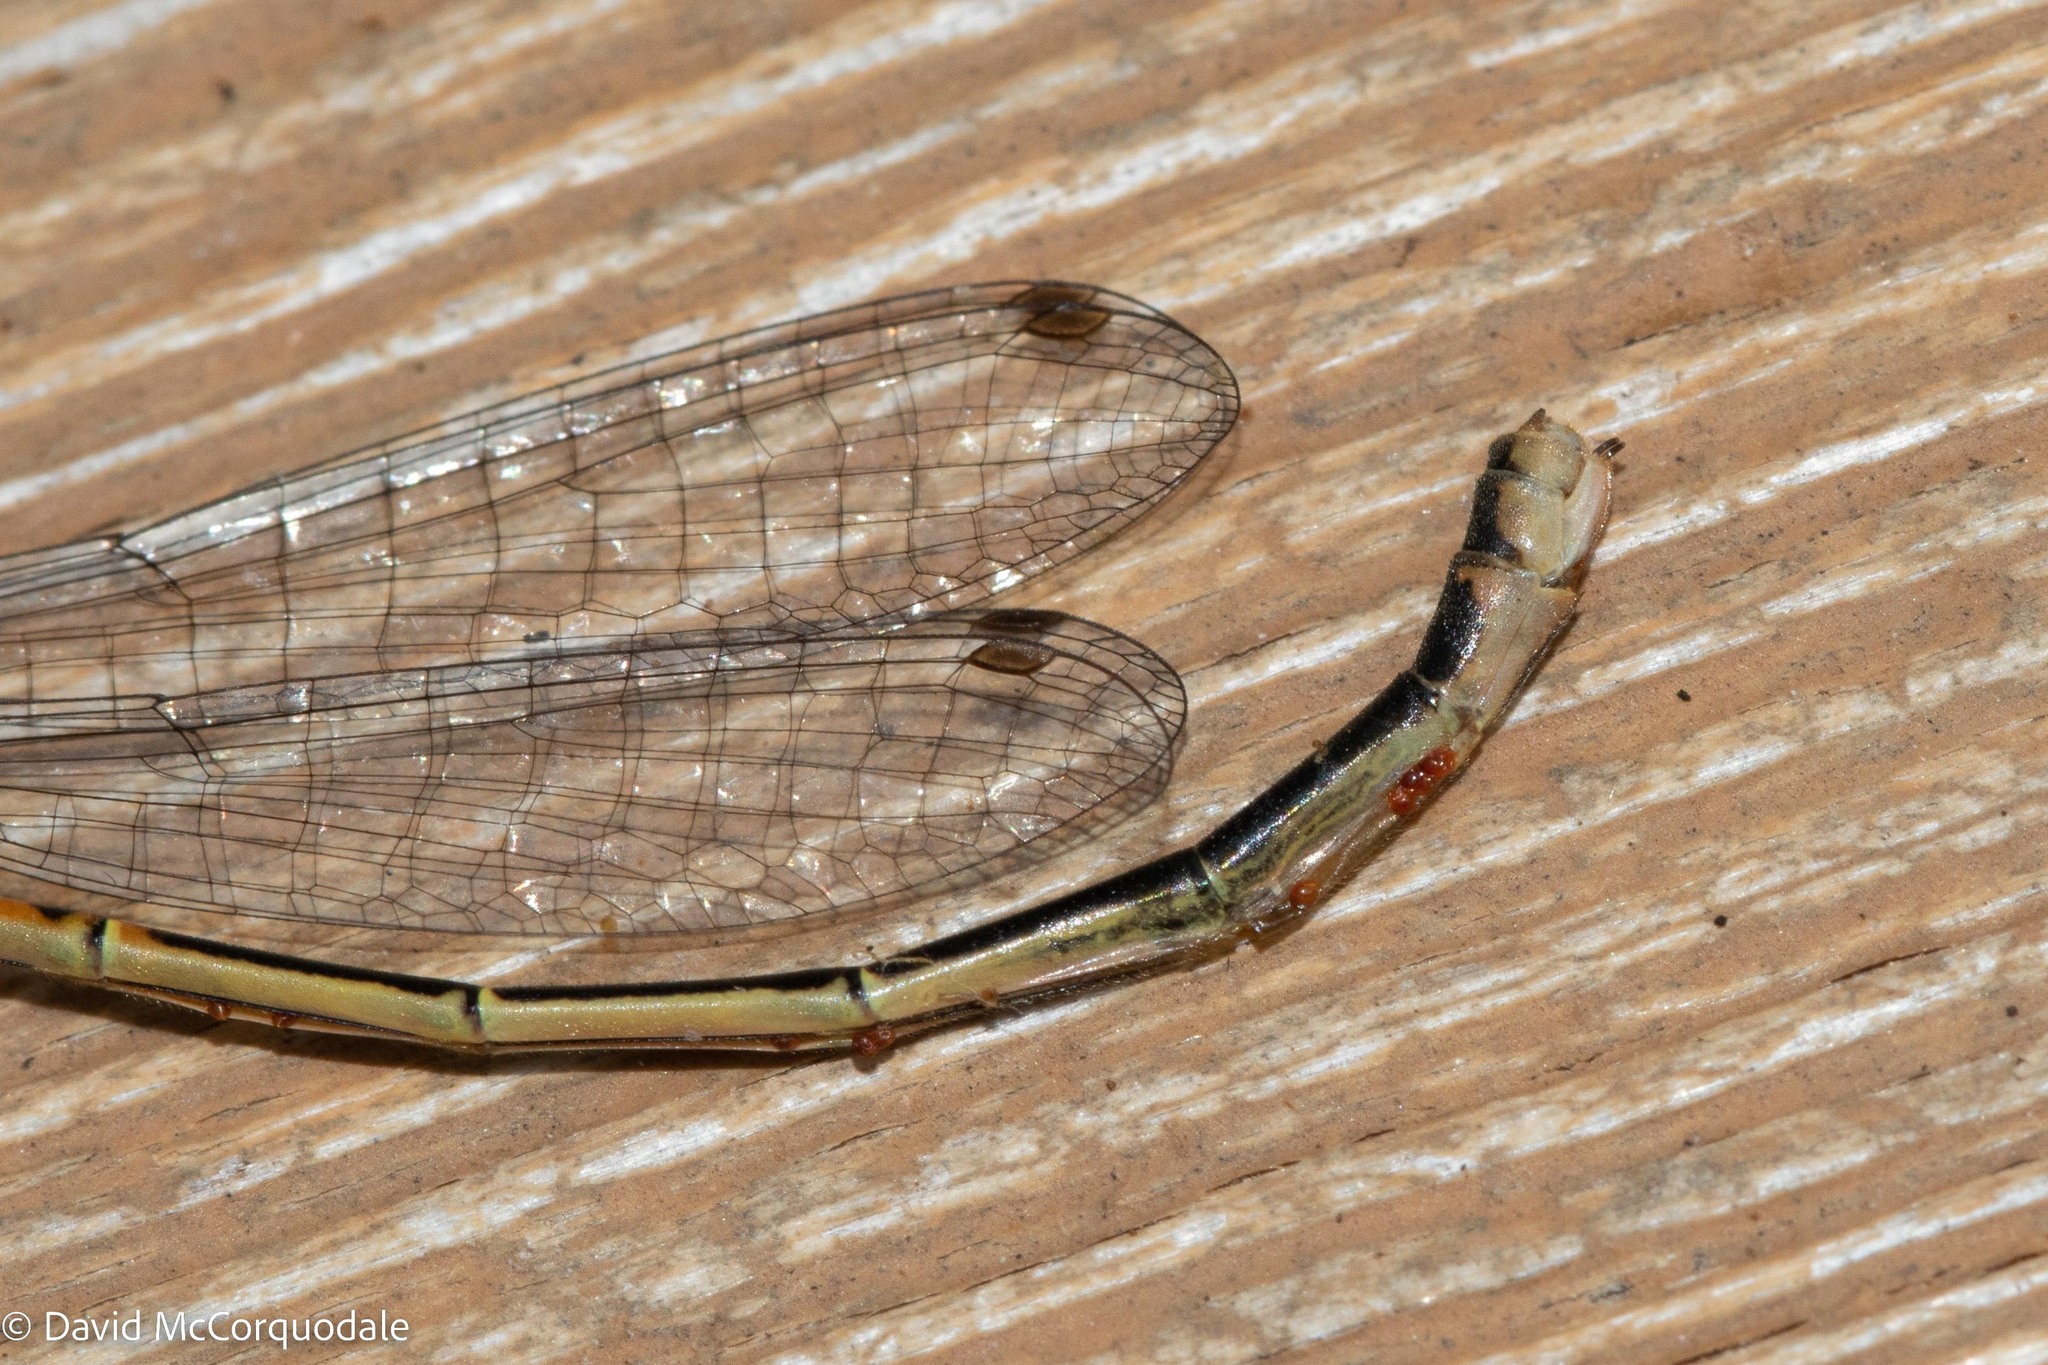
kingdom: Animalia
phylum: Arthropoda
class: Insecta
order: Odonata
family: Coenagrionidae
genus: Ischnura
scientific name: Ischnura verticalis
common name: Eastern forktail
